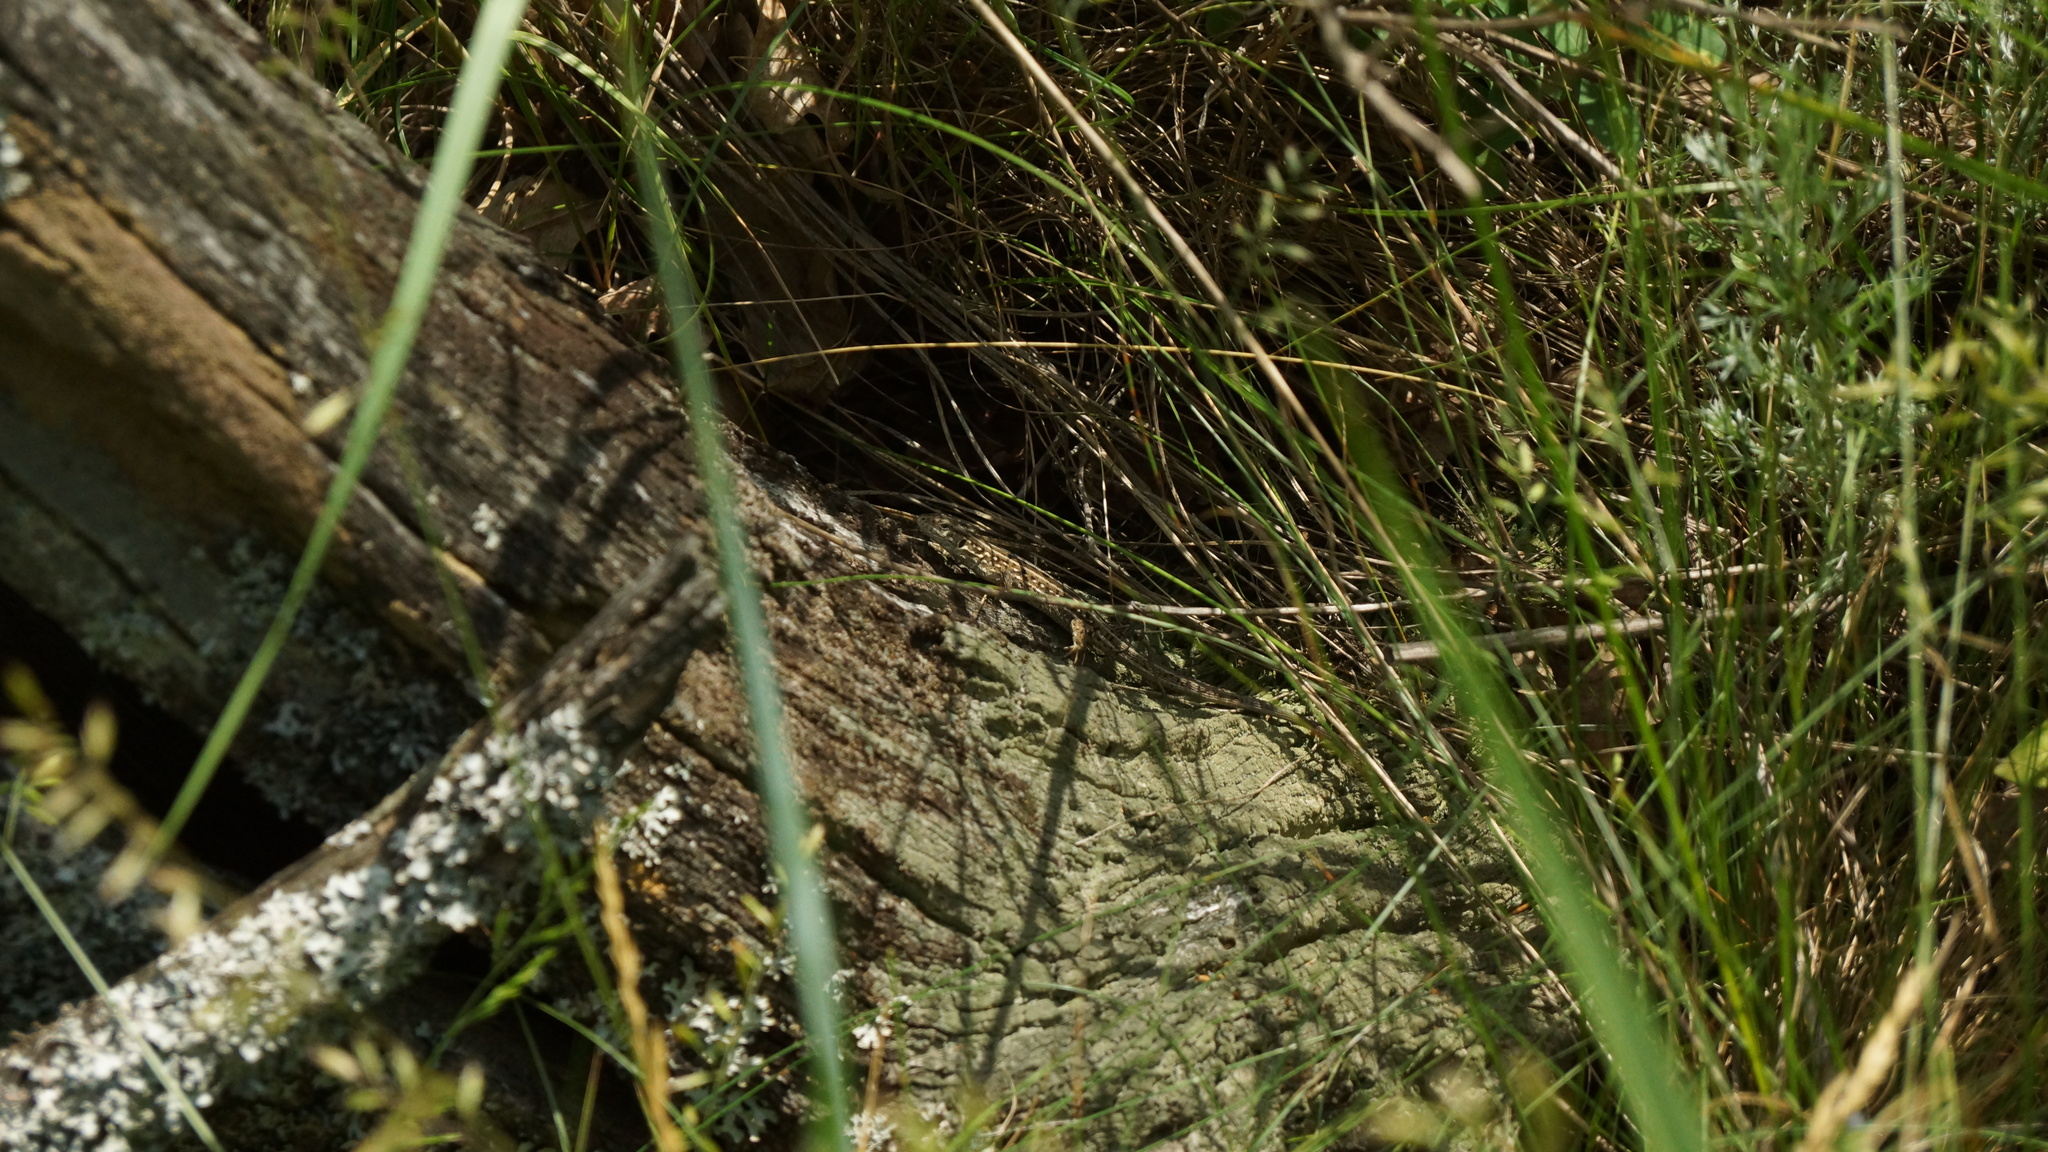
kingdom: Animalia
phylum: Chordata
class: Squamata
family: Lacertidae
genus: Lacerta
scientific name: Lacerta agilis
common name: Sand lizard
